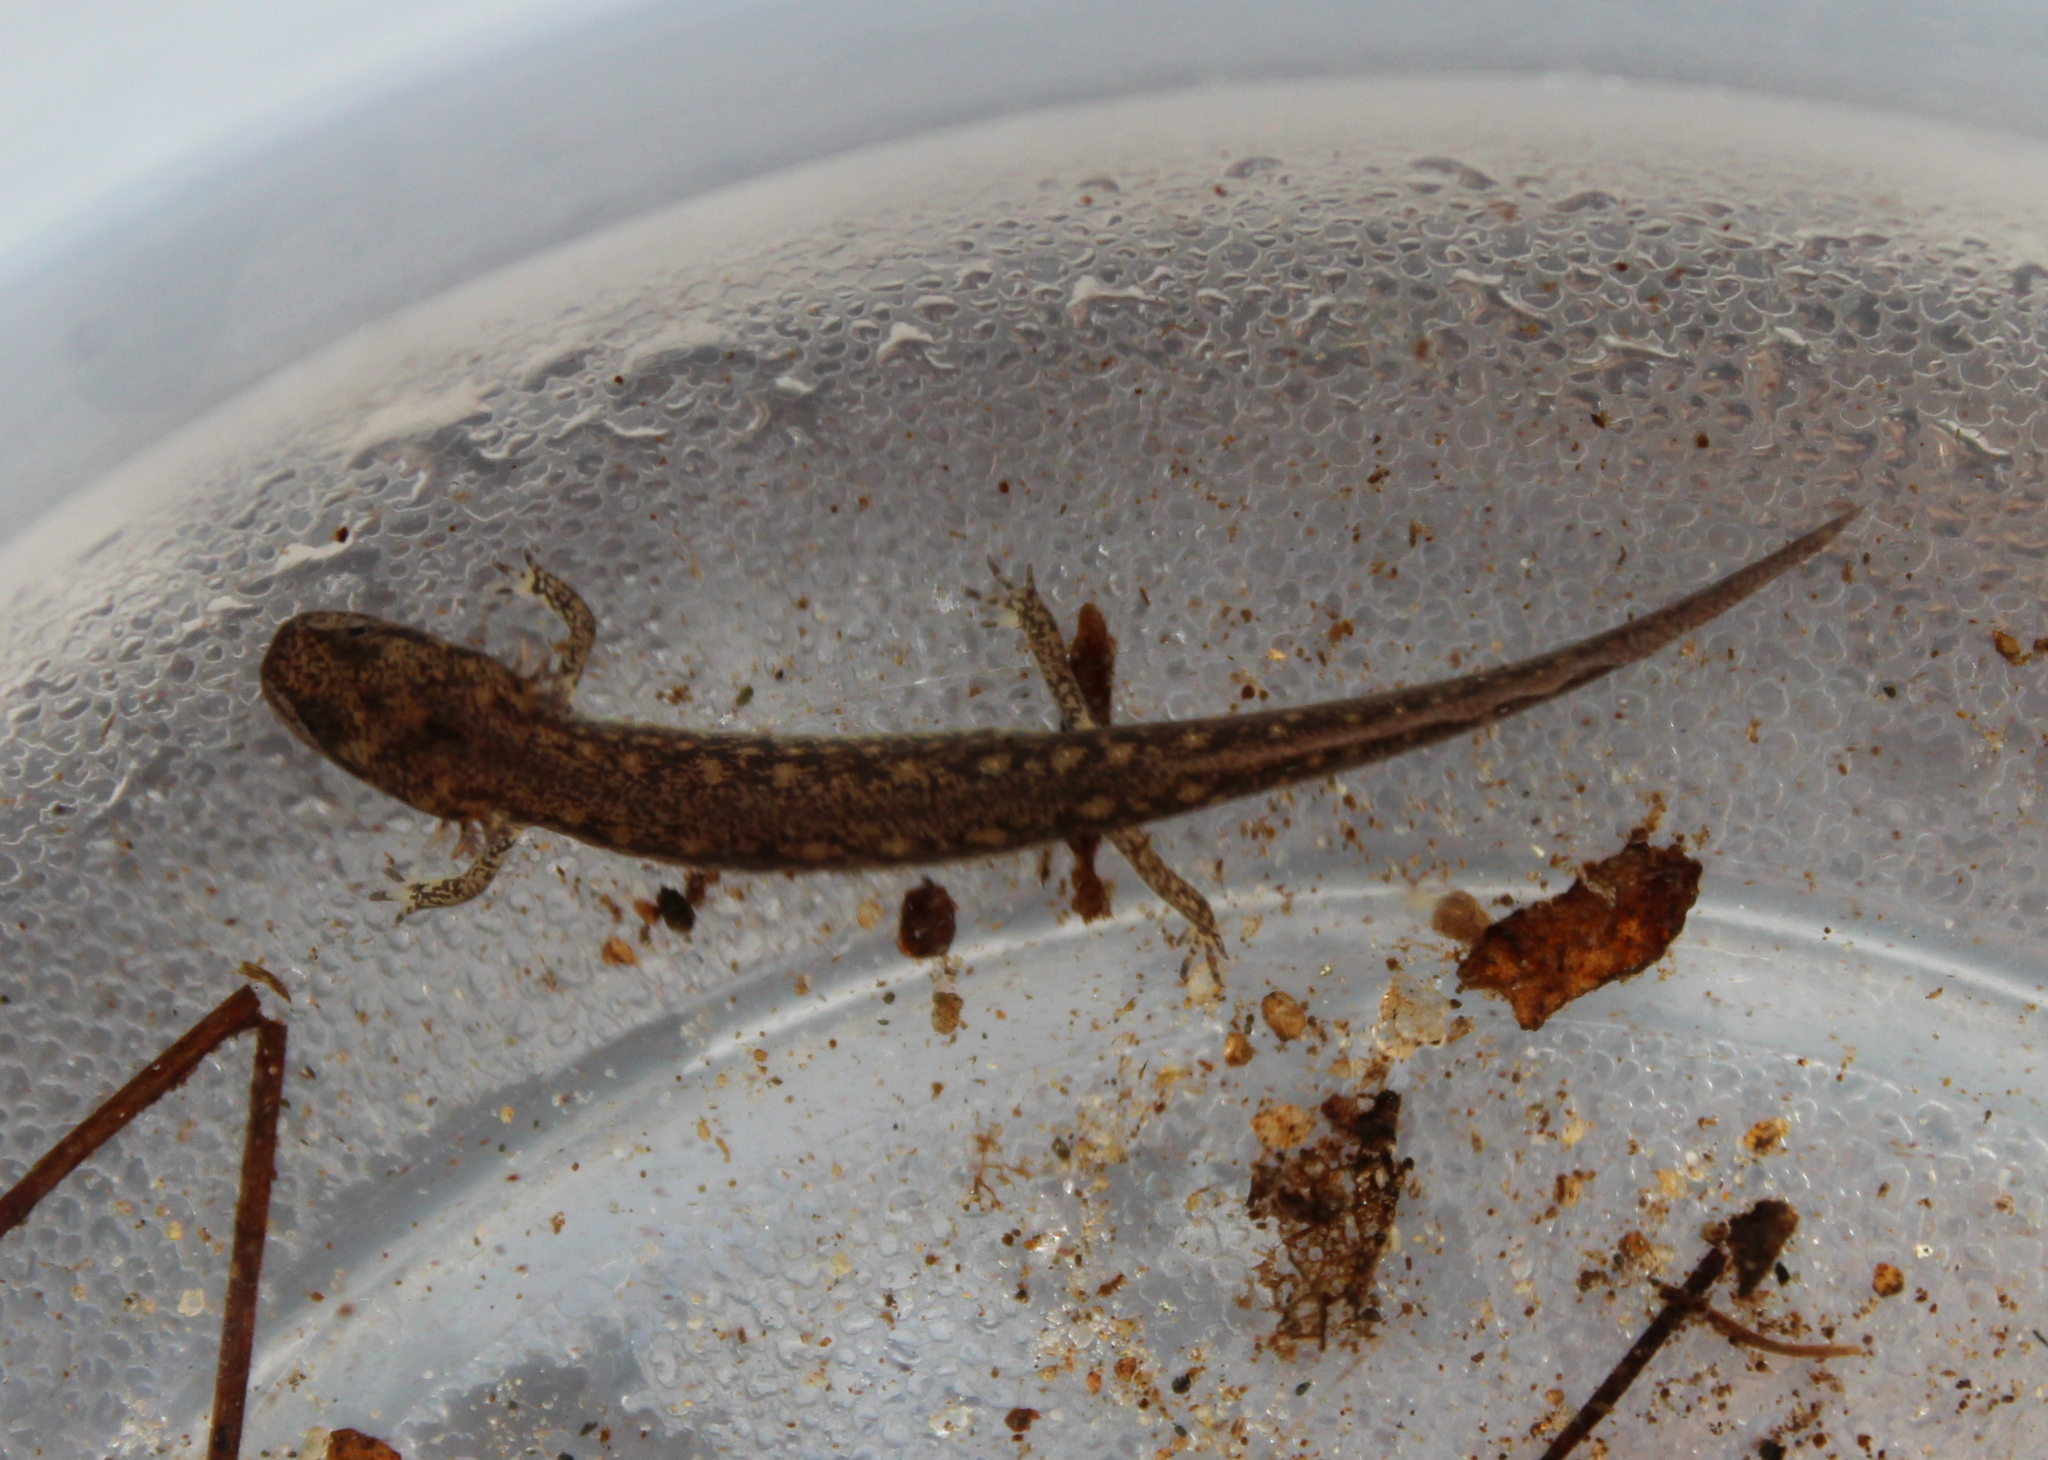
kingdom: Animalia
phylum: Chordata
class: Amphibia
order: Caudata
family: Plethodontidae
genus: Eurycea
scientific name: Eurycea bislineata
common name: Northern two-lined salamander
